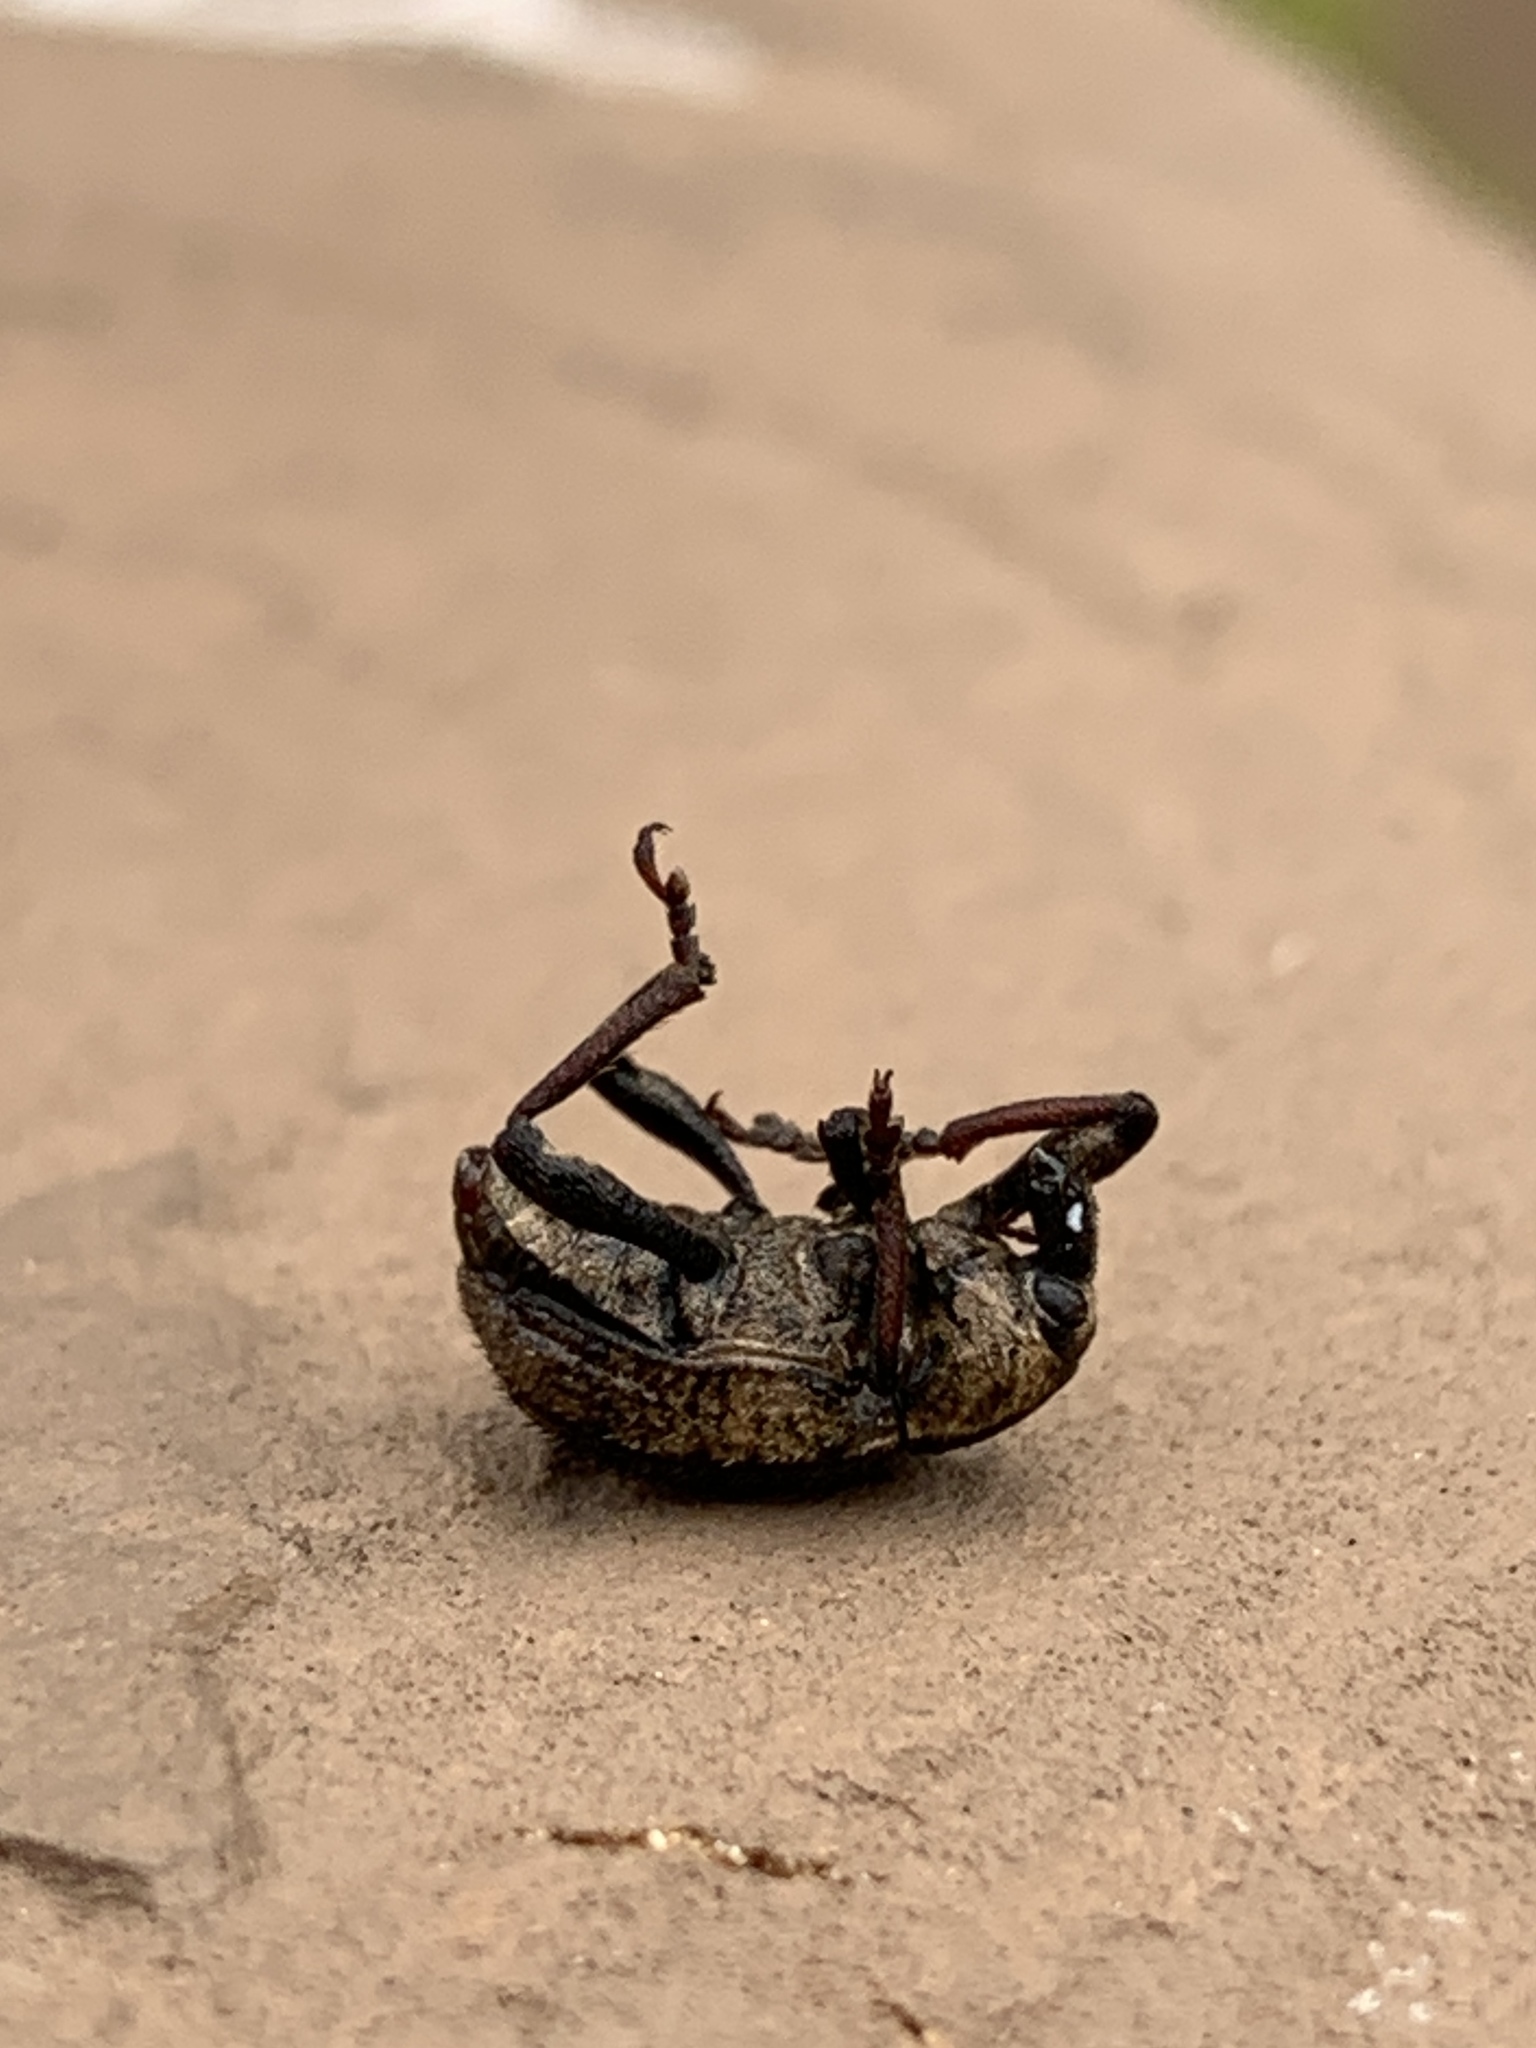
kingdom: Animalia
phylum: Arthropoda
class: Insecta
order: Coleoptera
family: Curculionidae
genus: Brachypera
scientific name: Brachypera zoilus
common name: Clover leaf weevil
